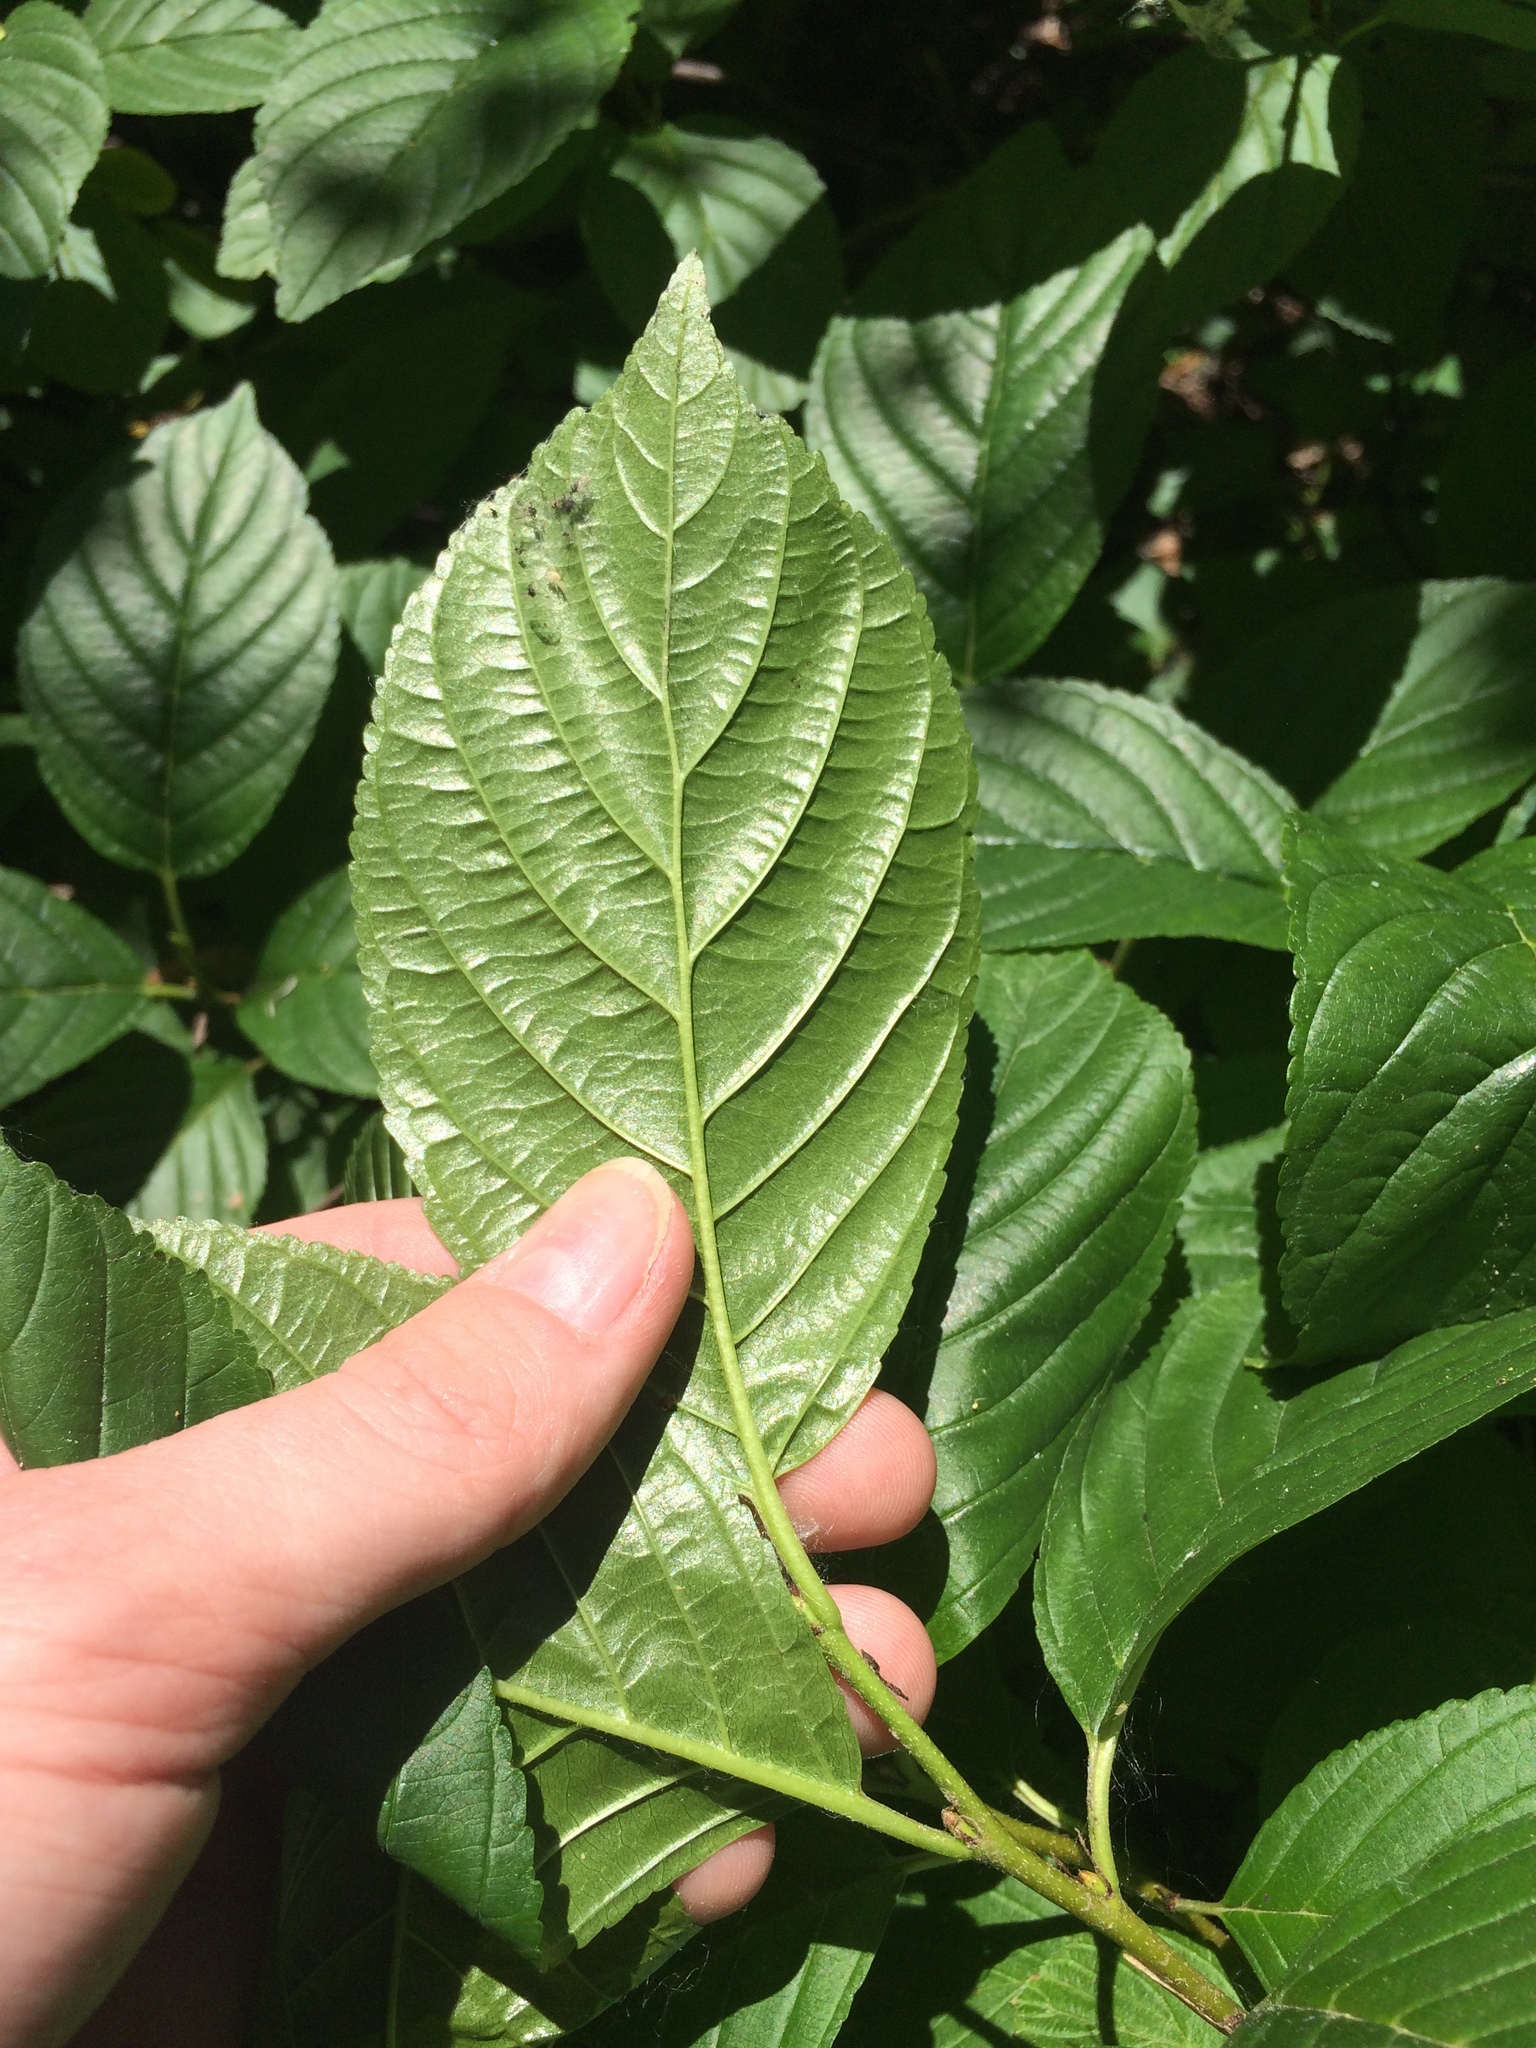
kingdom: Plantae
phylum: Tracheophyta
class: Magnoliopsida
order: Rosales
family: Rhamnaceae
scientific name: Rhamnaceae
